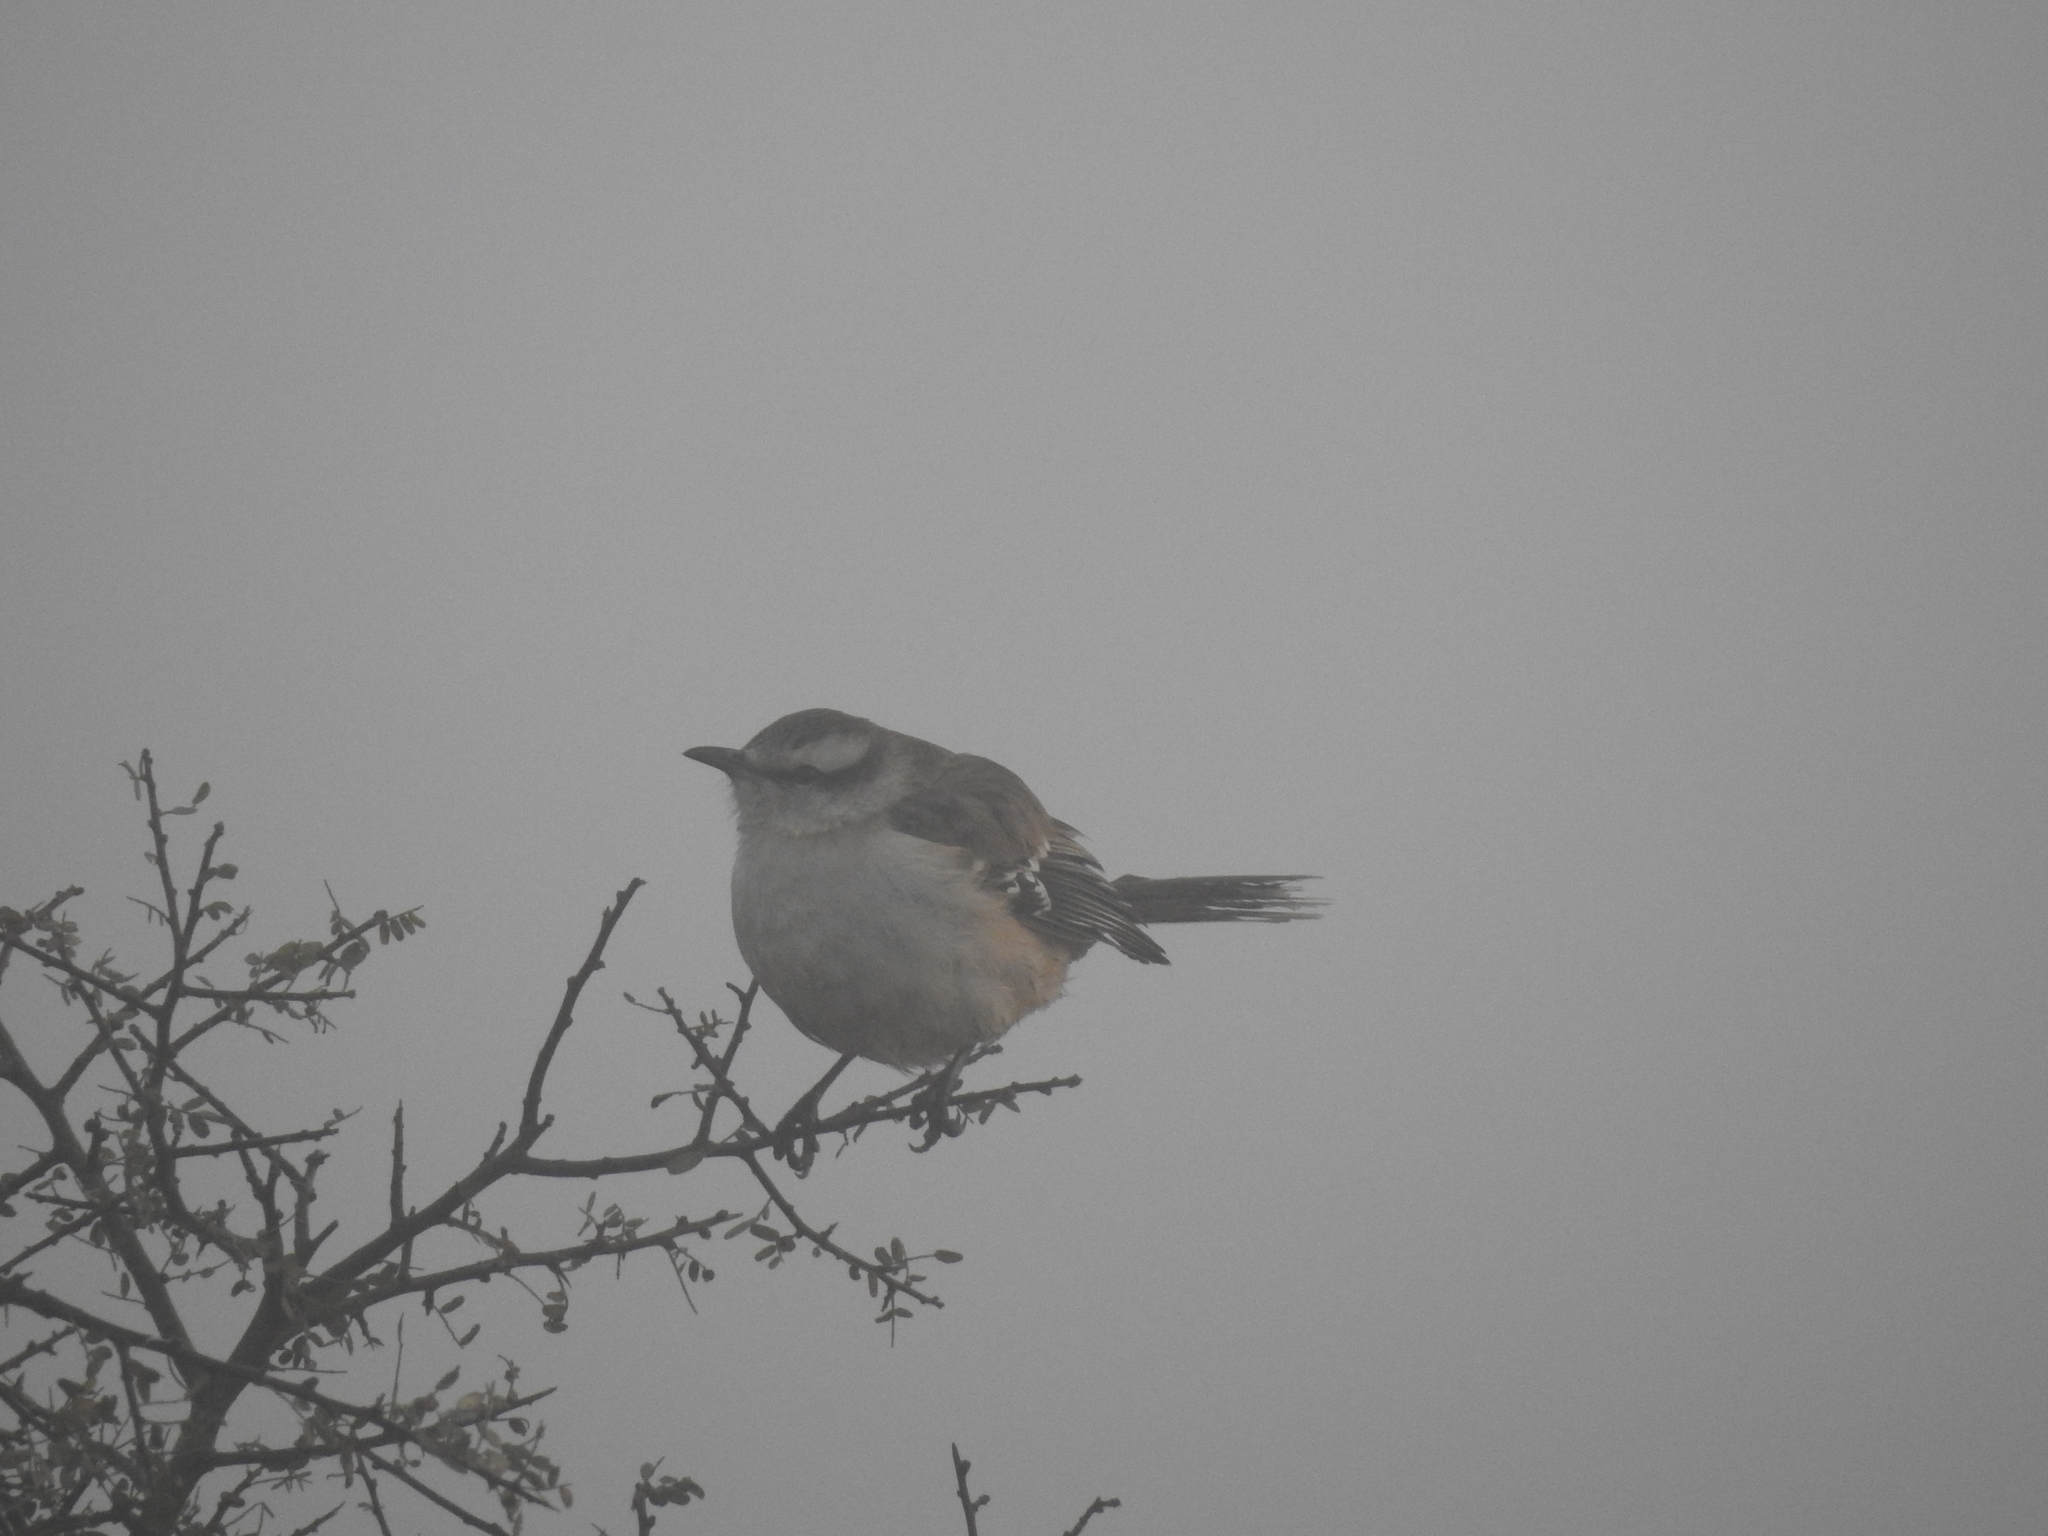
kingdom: Animalia
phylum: Chordata
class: Aves
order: Passeriformes
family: Mimidae
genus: Mimus
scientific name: Mimus saturninus
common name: Chalk-browed mockingbird
